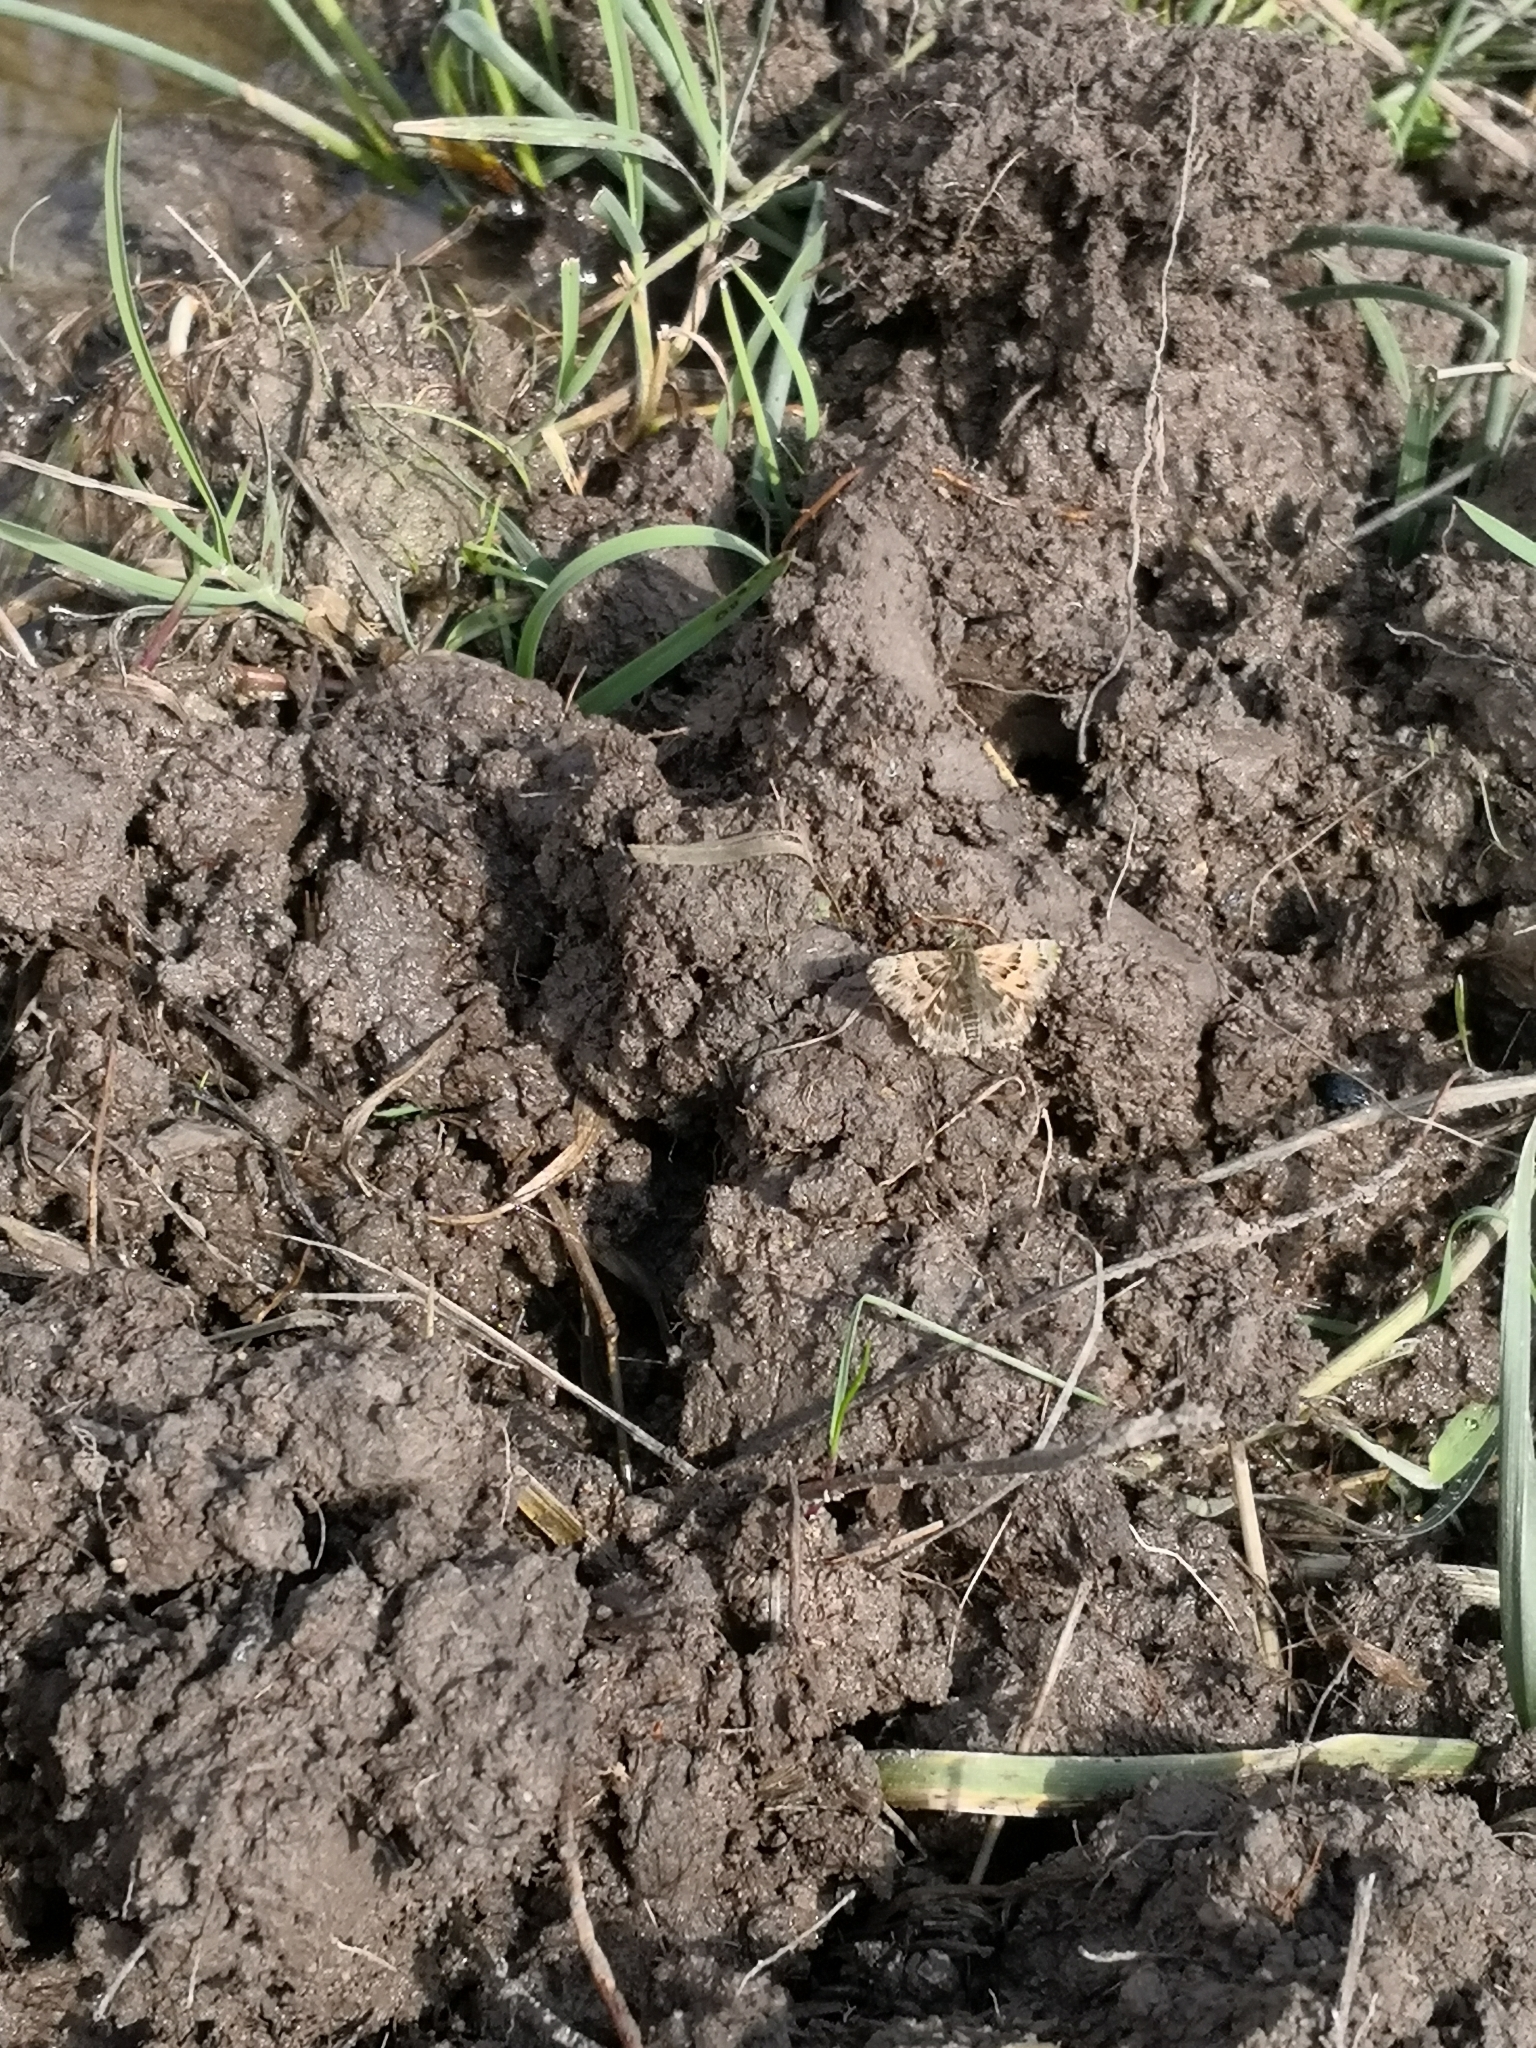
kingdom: Animalia
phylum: Arthropoda
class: Insecta
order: Lepidoptera
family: Hesperiidae
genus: Carcharodus
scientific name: Carcharodus alceae
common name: Mallow skipper
